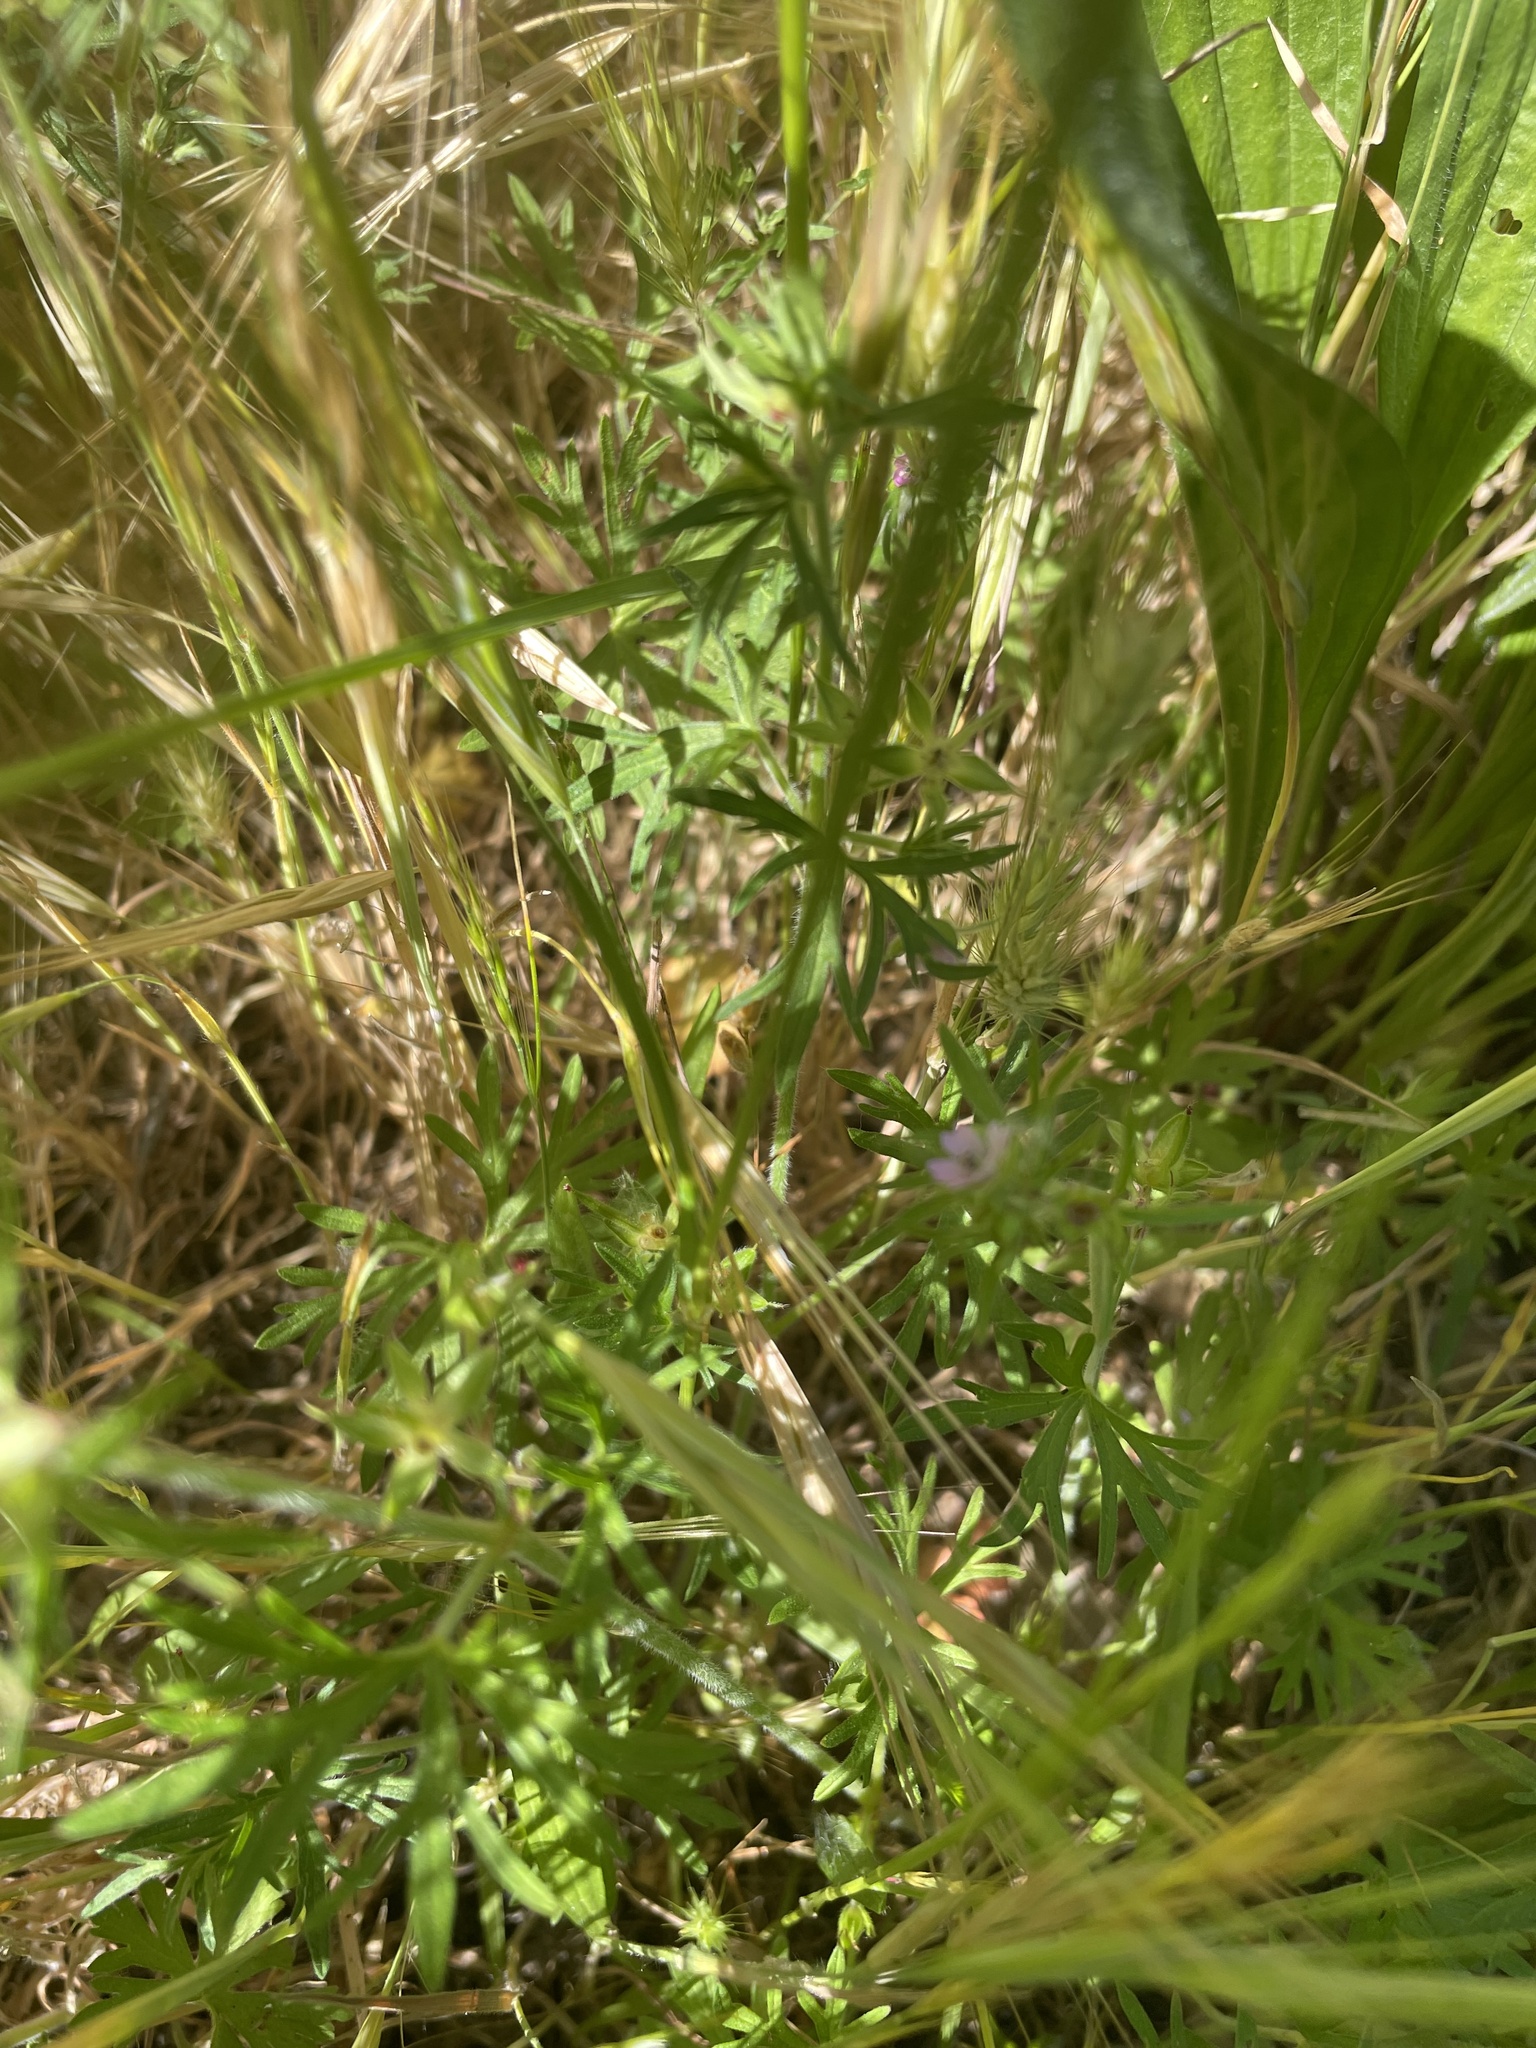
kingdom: Plantae
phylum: Tracheophyta
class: Magnoliopsida
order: Geraniales
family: Geraniaceae
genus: Geranium
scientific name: Geranium dissectum
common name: Cut-leaved crane's-bill
